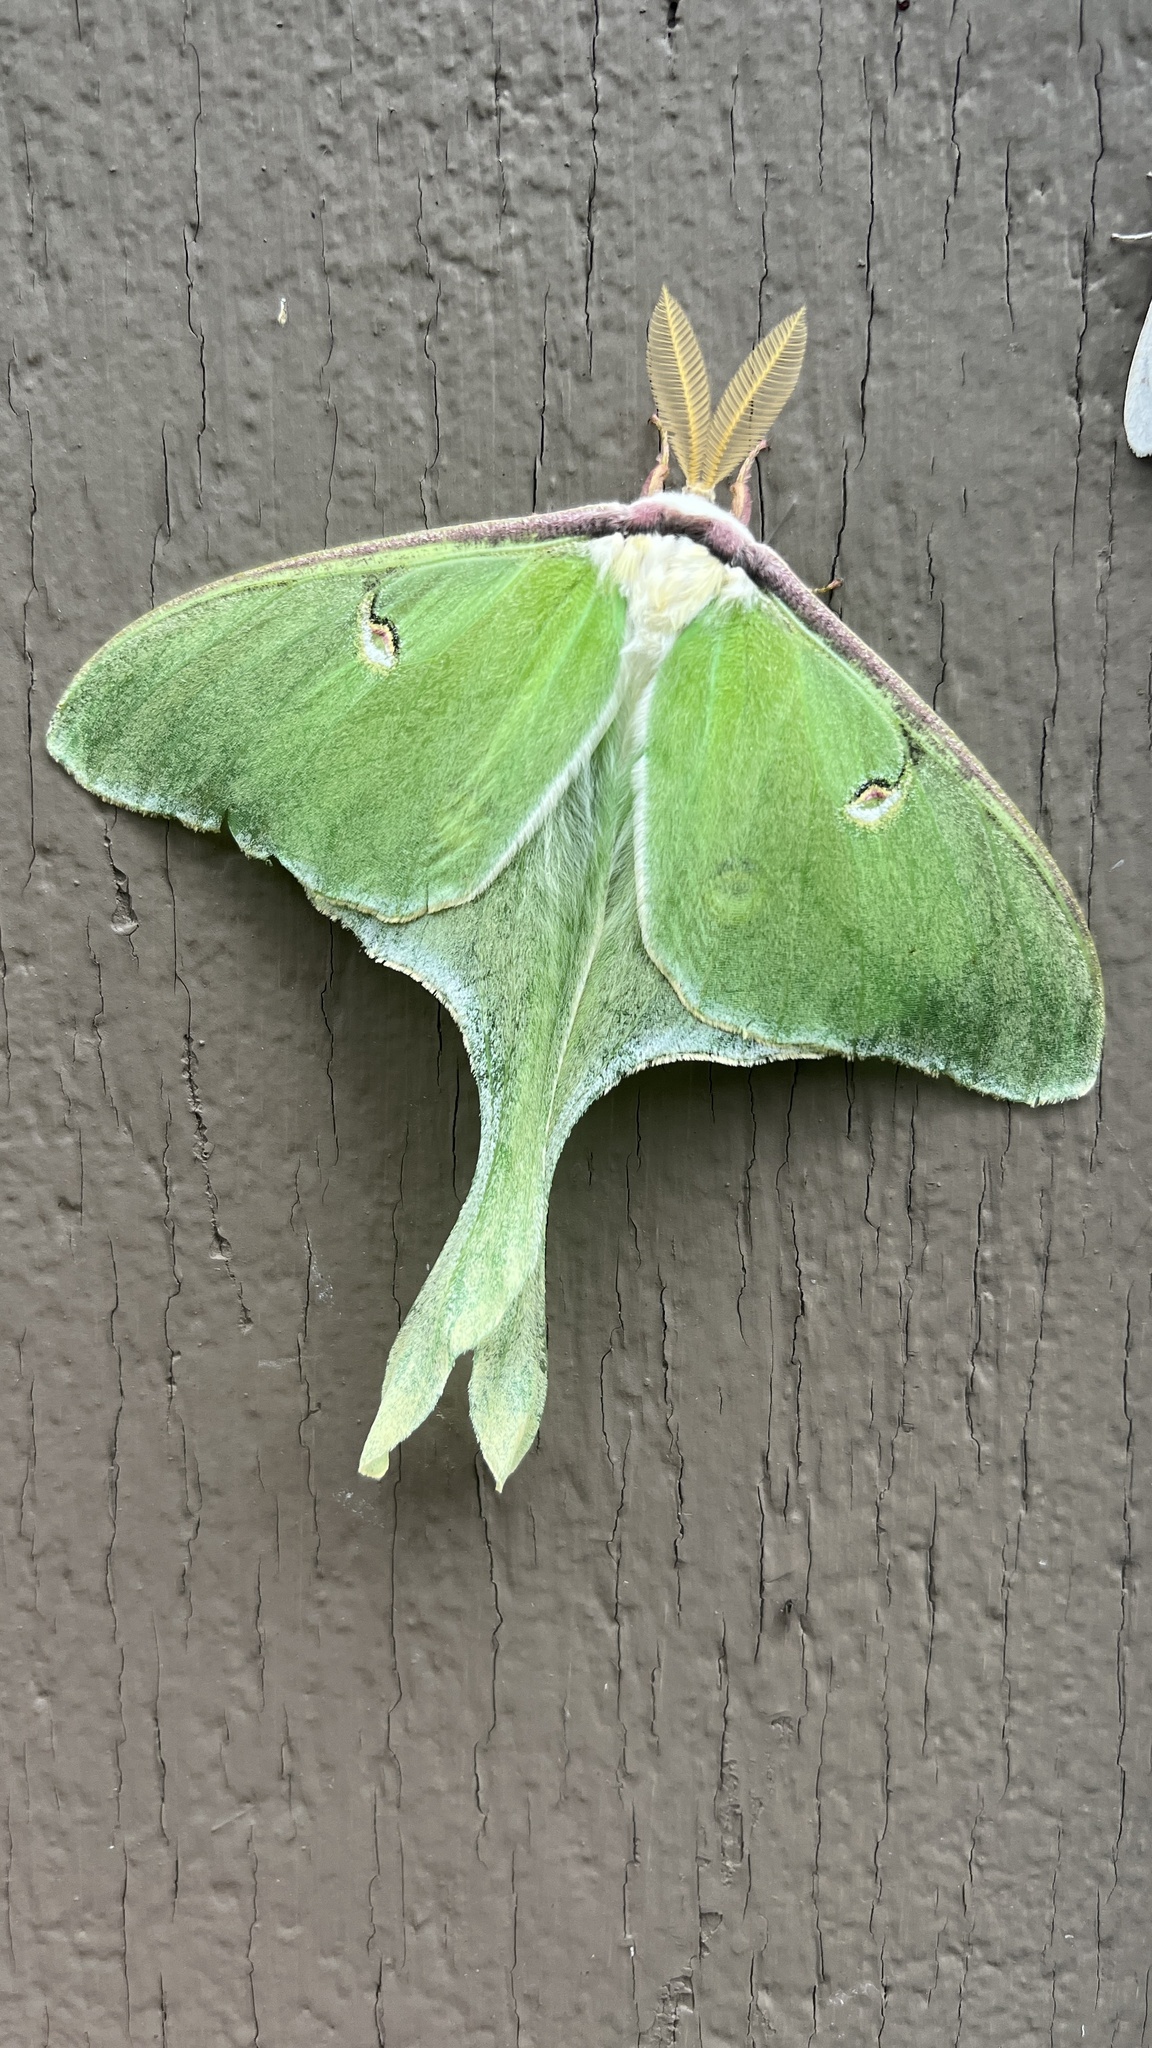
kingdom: Animalia
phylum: Arthropoda
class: Insecta
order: Lepidoptera
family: Saturniidae
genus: Actias
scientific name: Actias luna
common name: Luna moth
